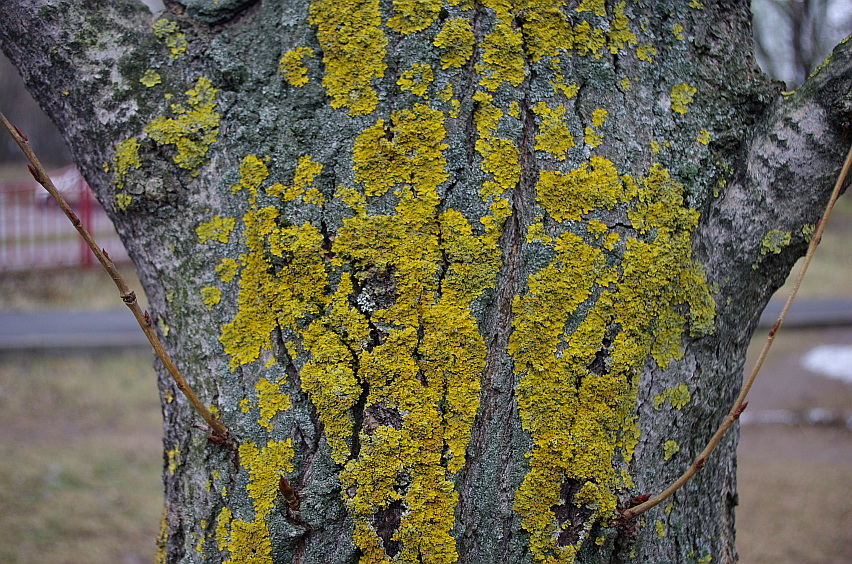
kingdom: Fungi
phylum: Ascomycota
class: Lecanoromycetes
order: Teloschistales
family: Teloschistaceae
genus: Xanthoria
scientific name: Xanthoria parietina
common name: Common orange lichen
